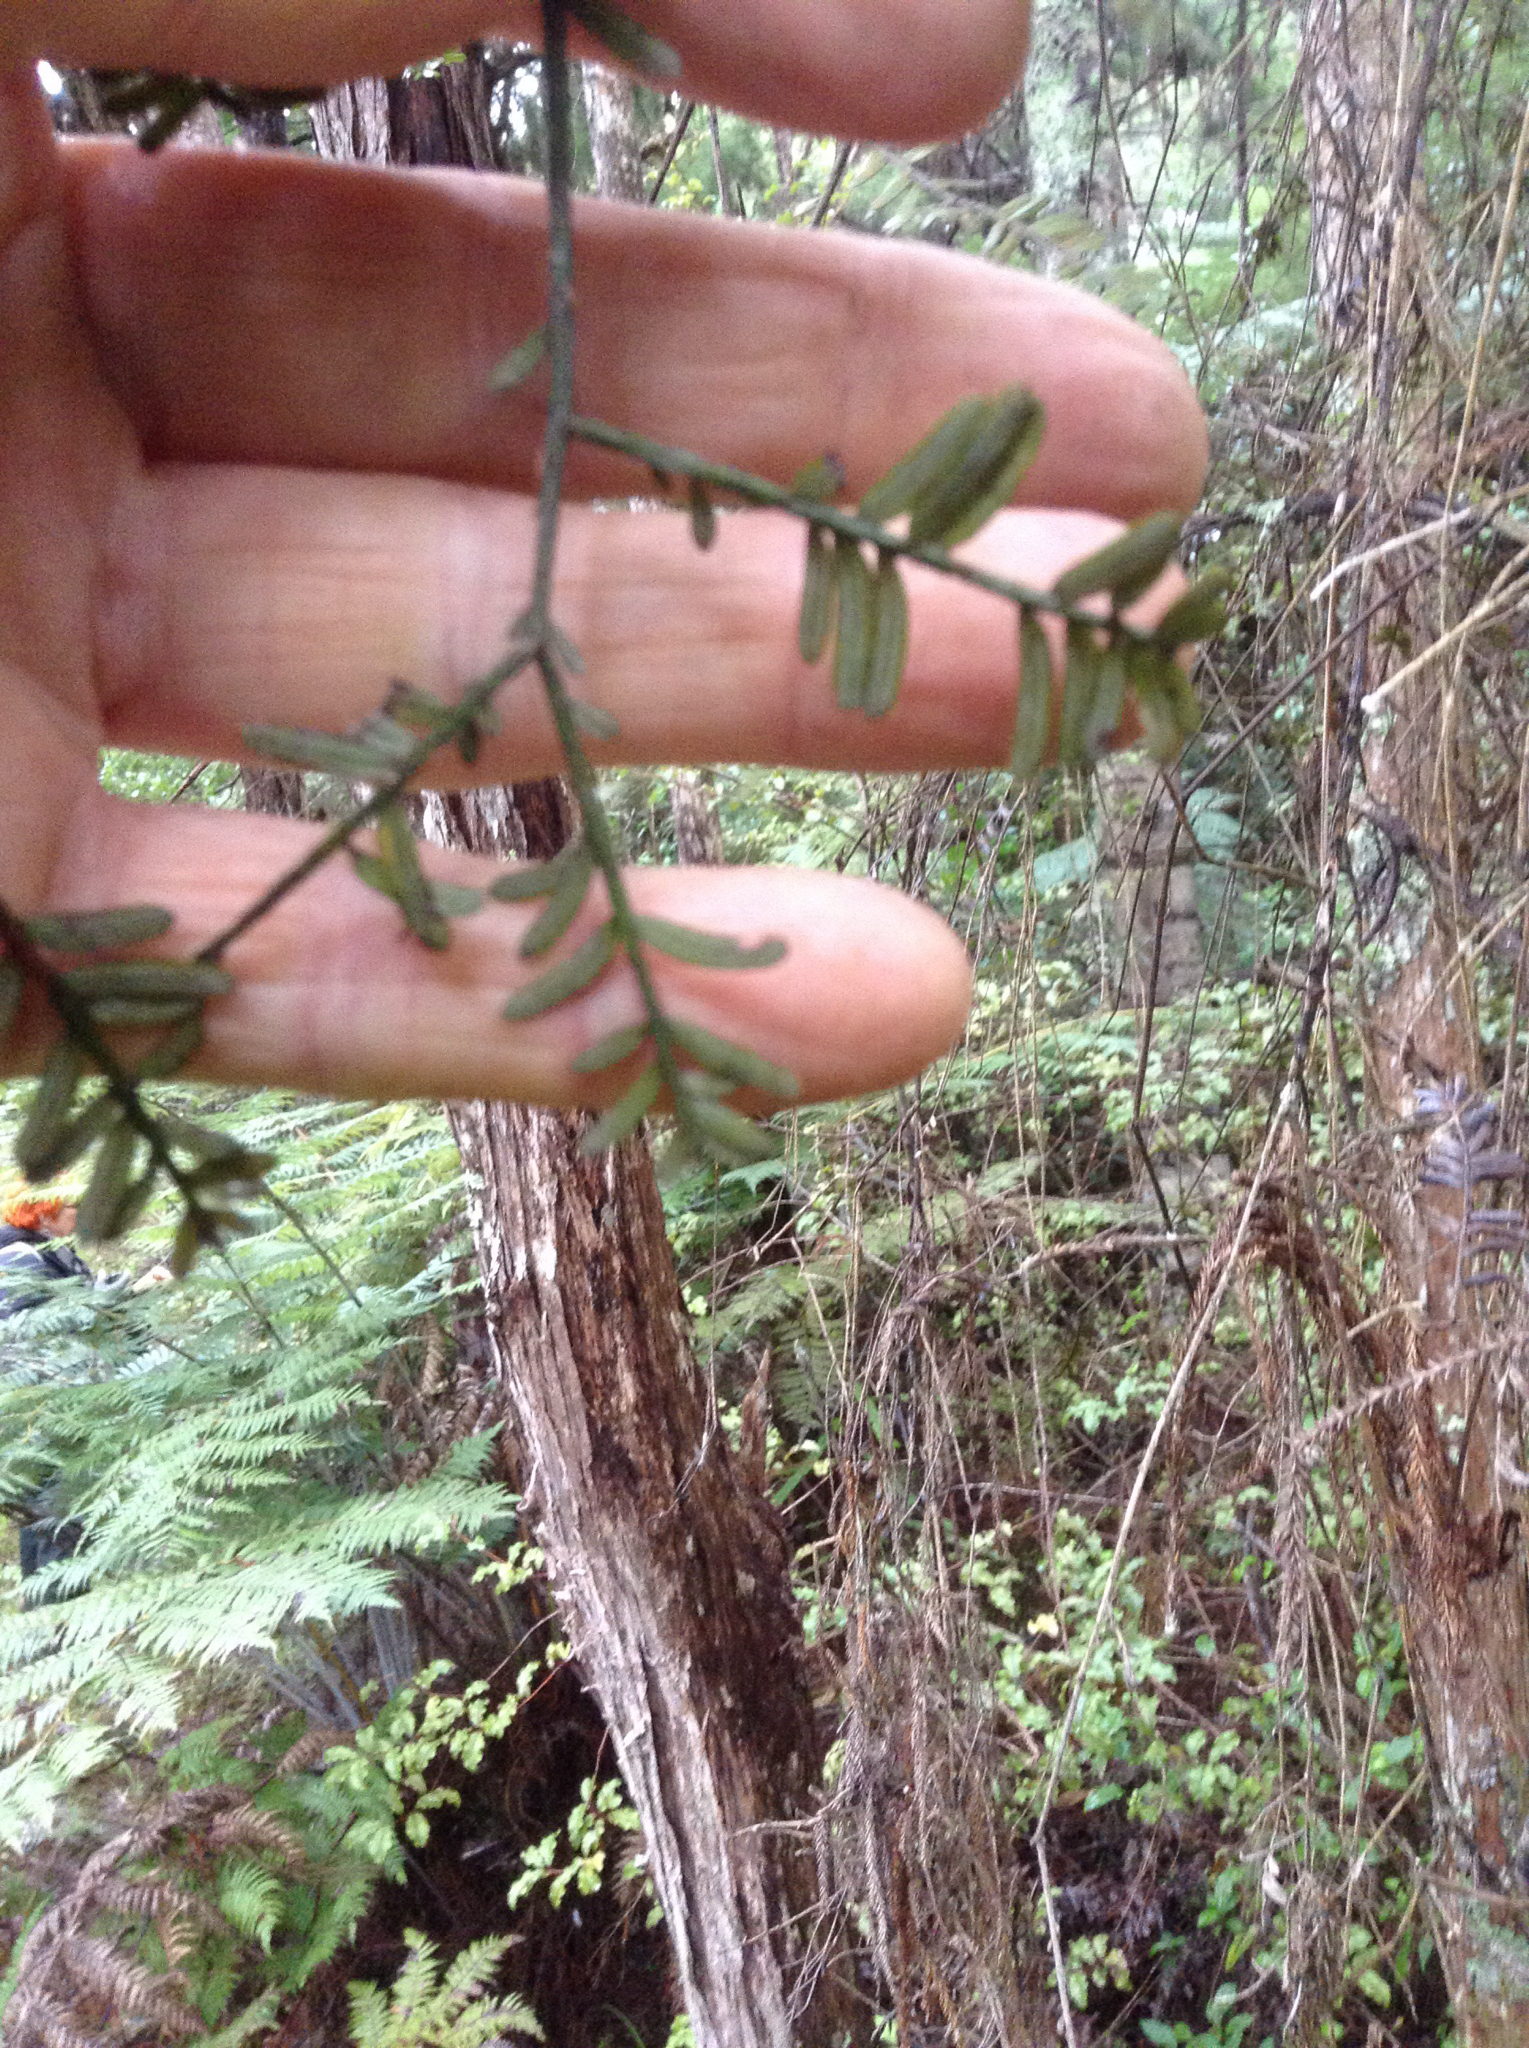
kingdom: Plantae
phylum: Tracheophyta
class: Pinopsida
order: Pinales
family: Podocarpaceae
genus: Prumnopitys
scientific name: Prumnopitys taxifolia
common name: Matai
